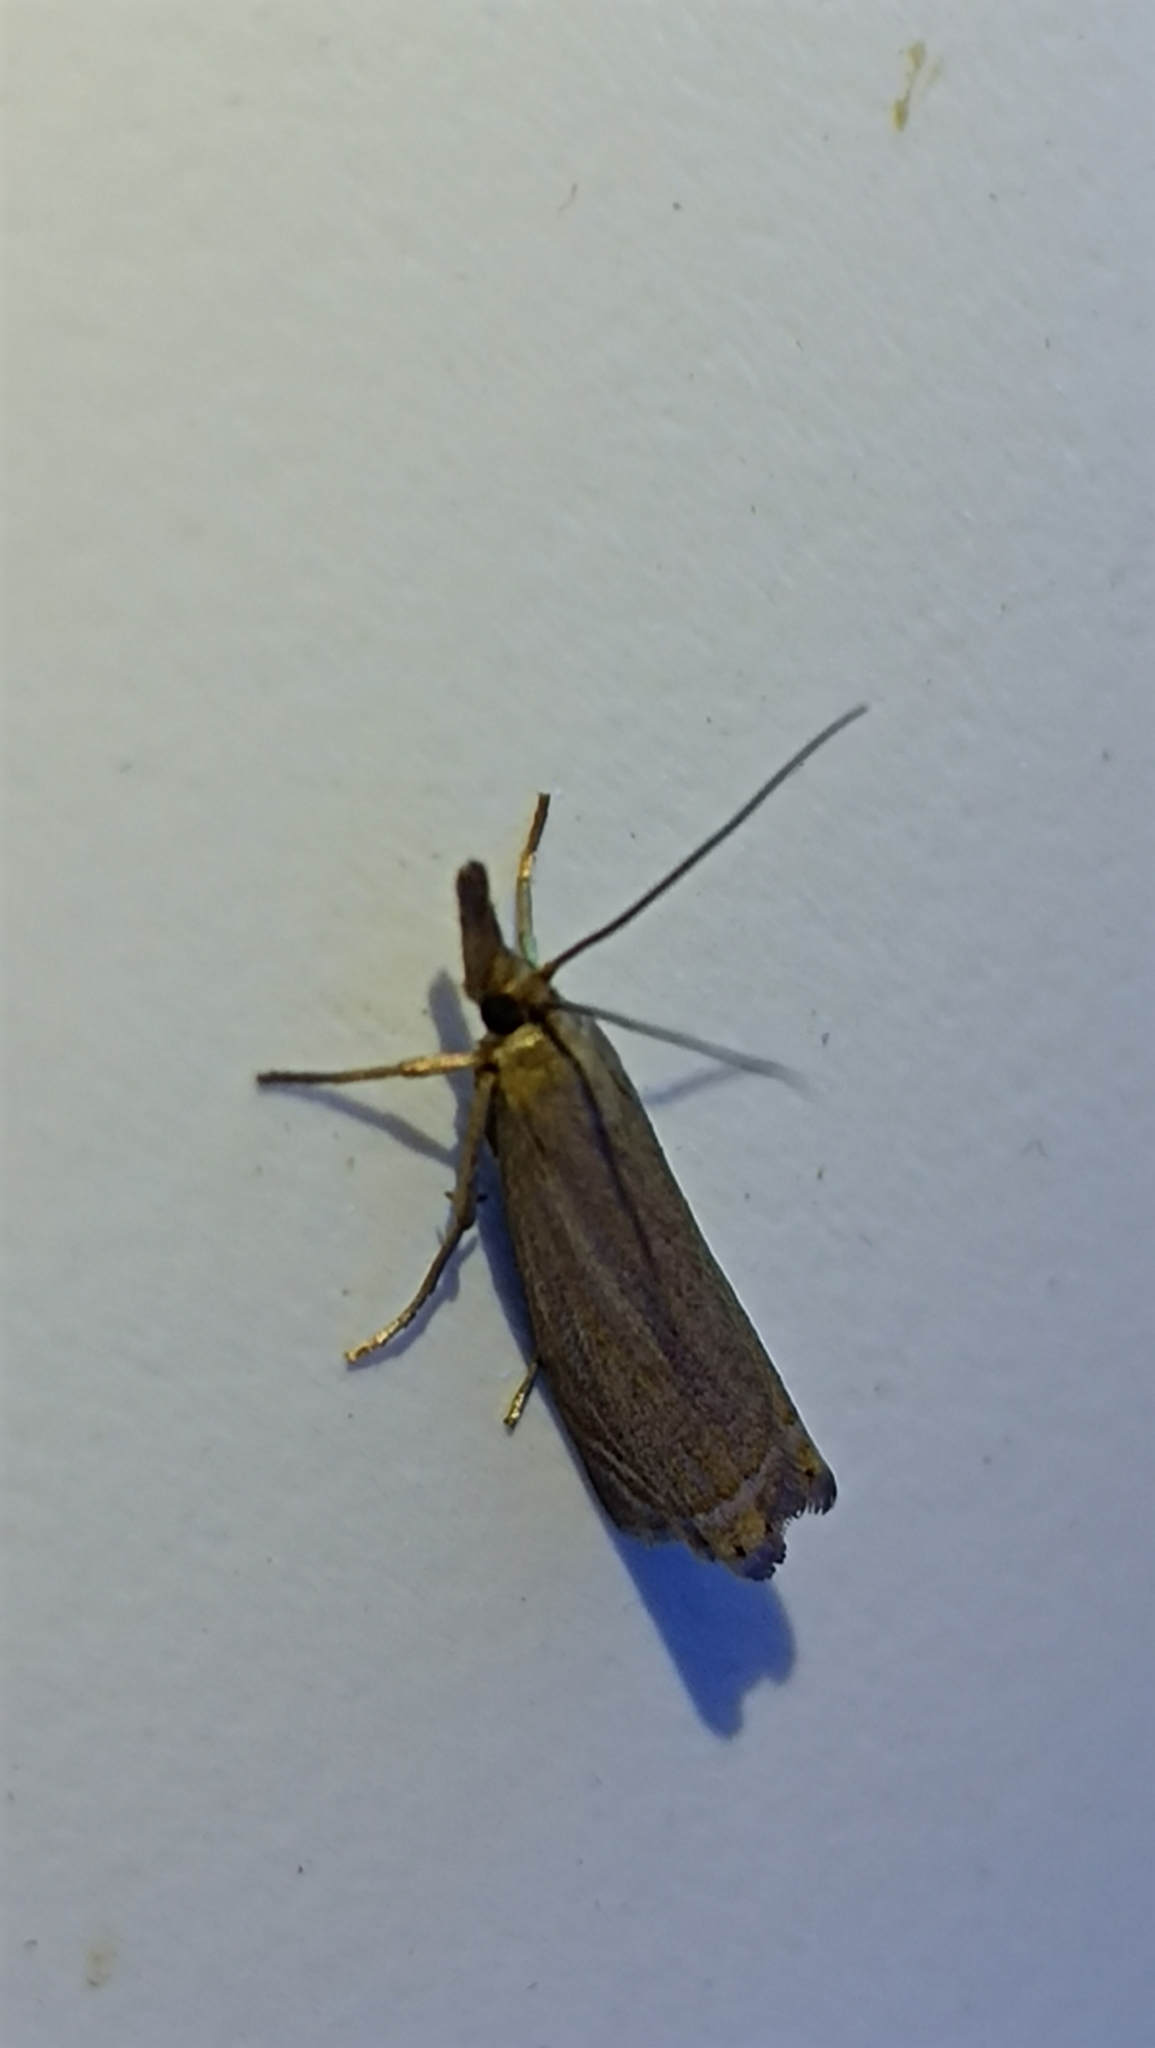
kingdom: Animalia
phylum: Arthropoda
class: Insecta
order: Lepidoptera
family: Crambidae
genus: Chrysoteuchia
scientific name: Chrysoteuchia culmella
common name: Garden grass-veneer
